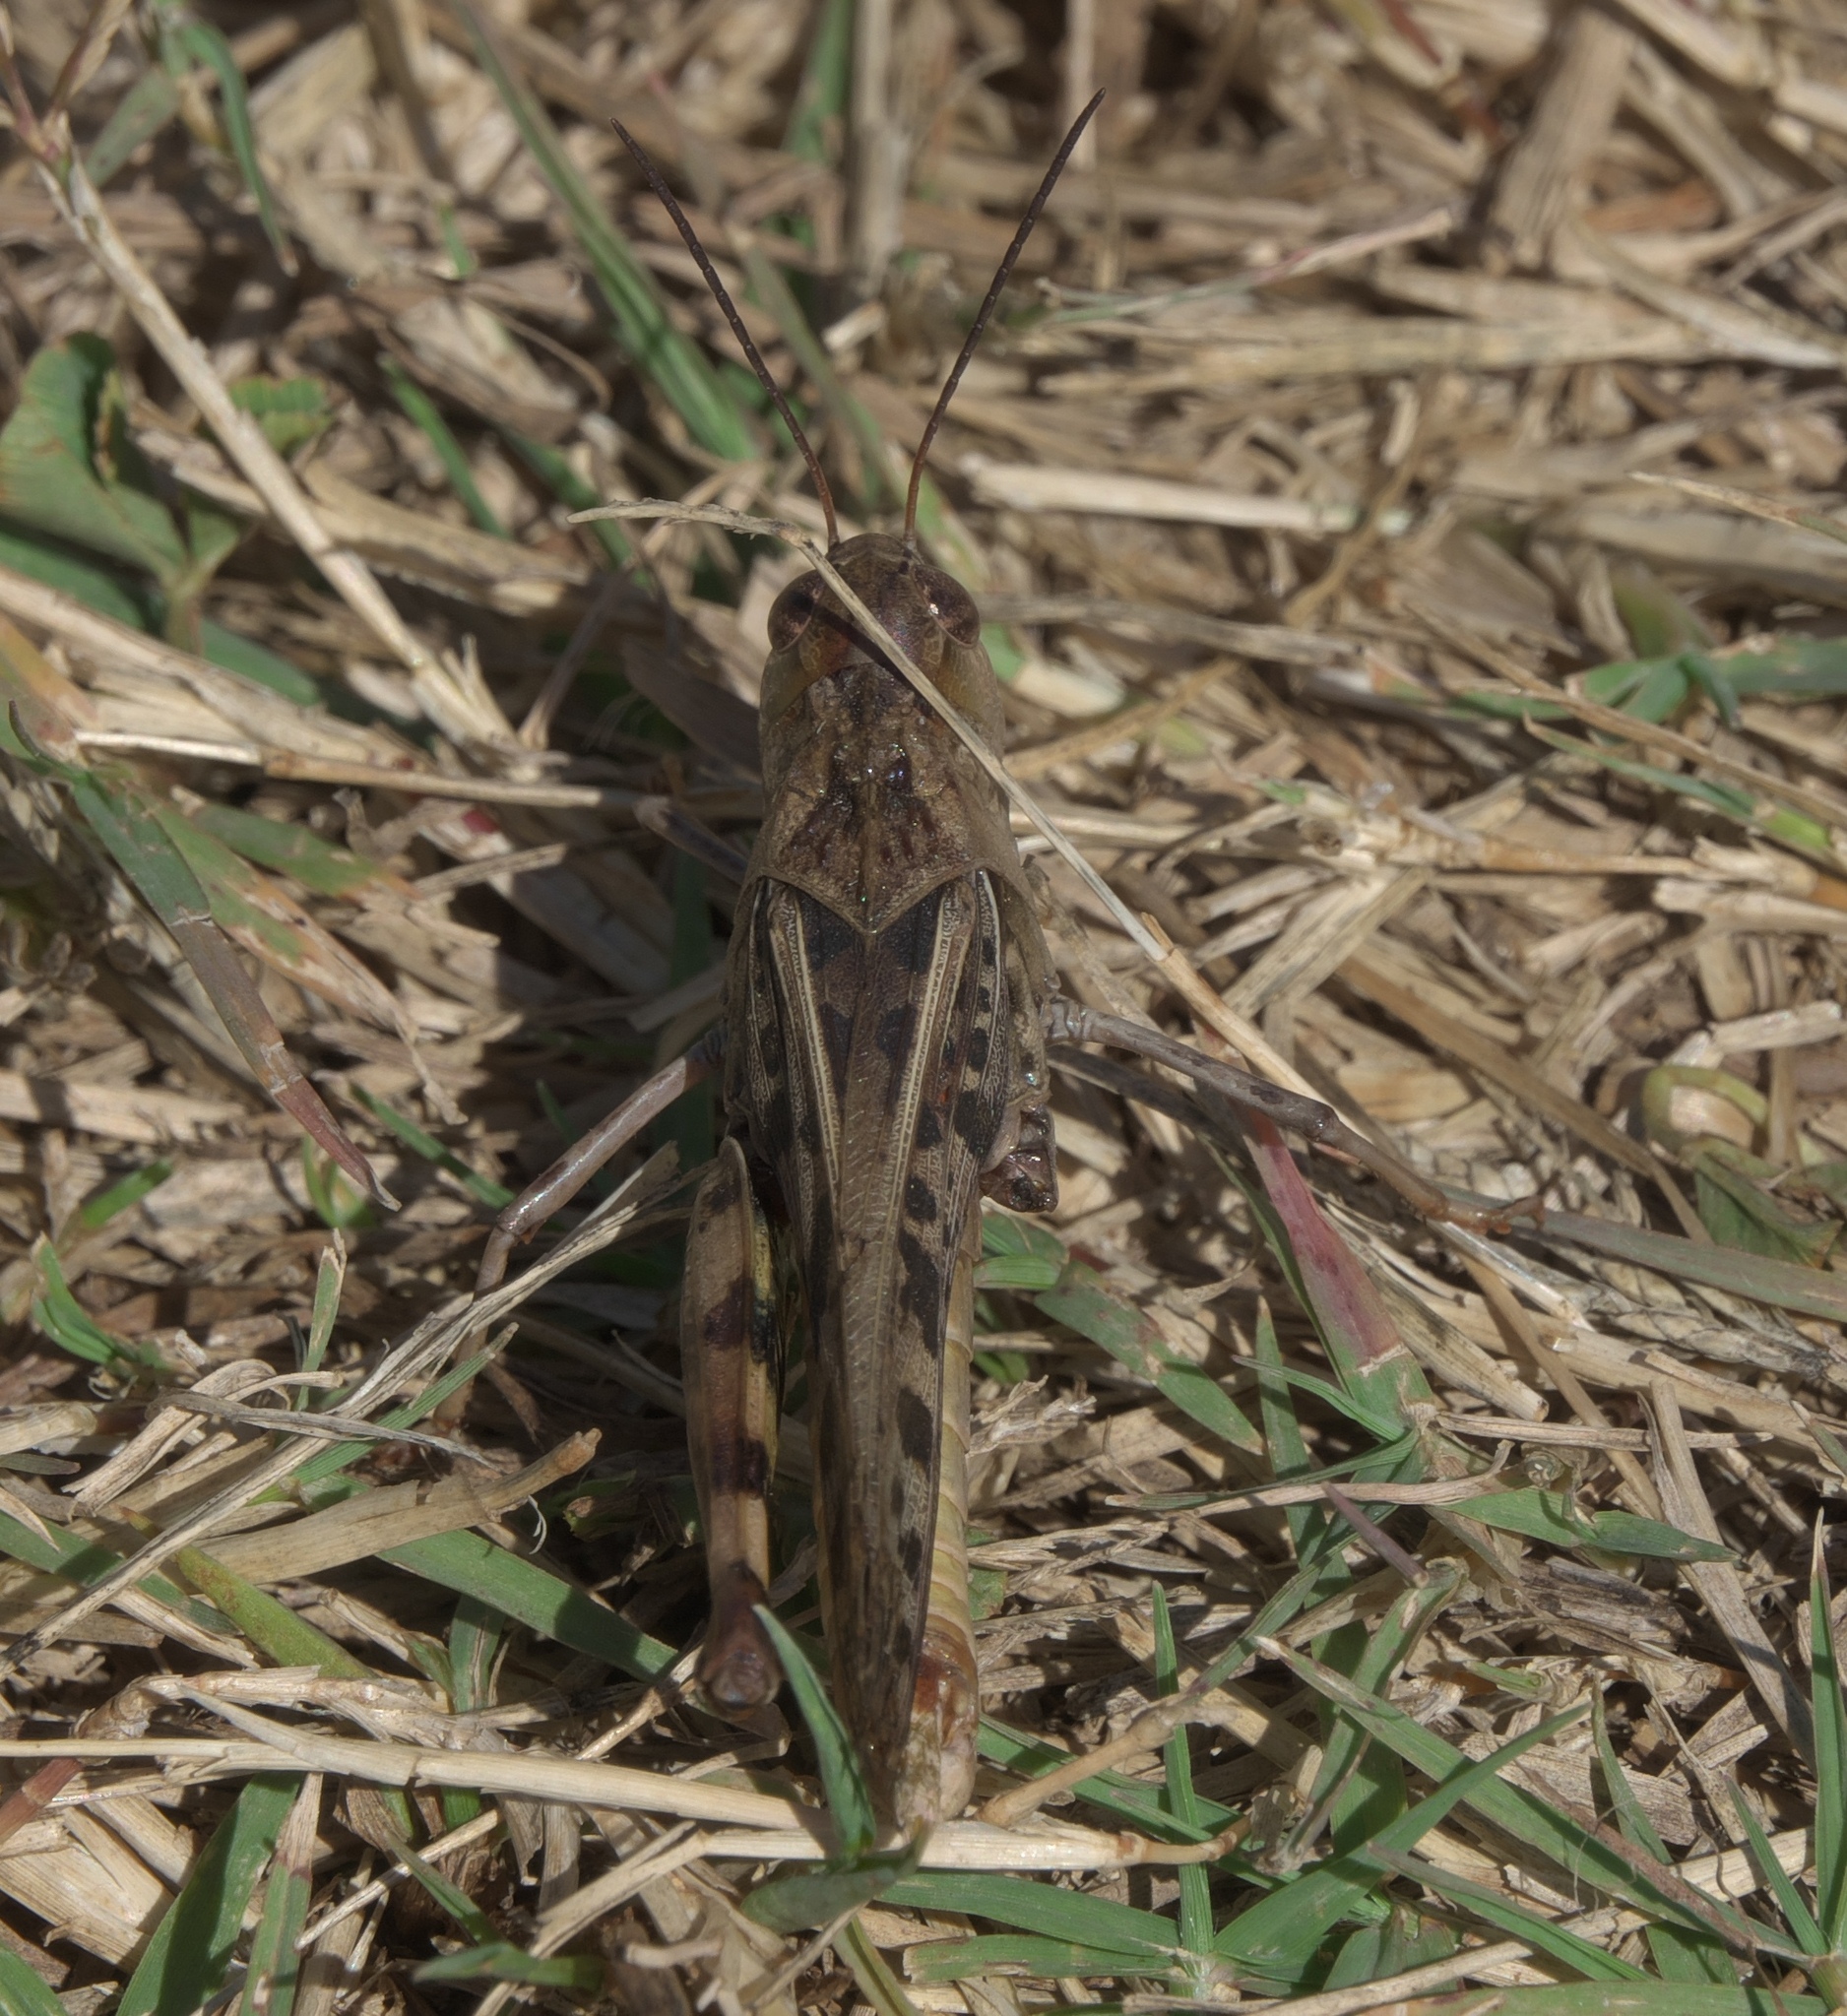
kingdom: Animalia
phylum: Arthropoda
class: Insecta
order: Orthoptera
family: Acrididae
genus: Hippiscus
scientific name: Hippiscus ocelote
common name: Wrinkled grasshopper
